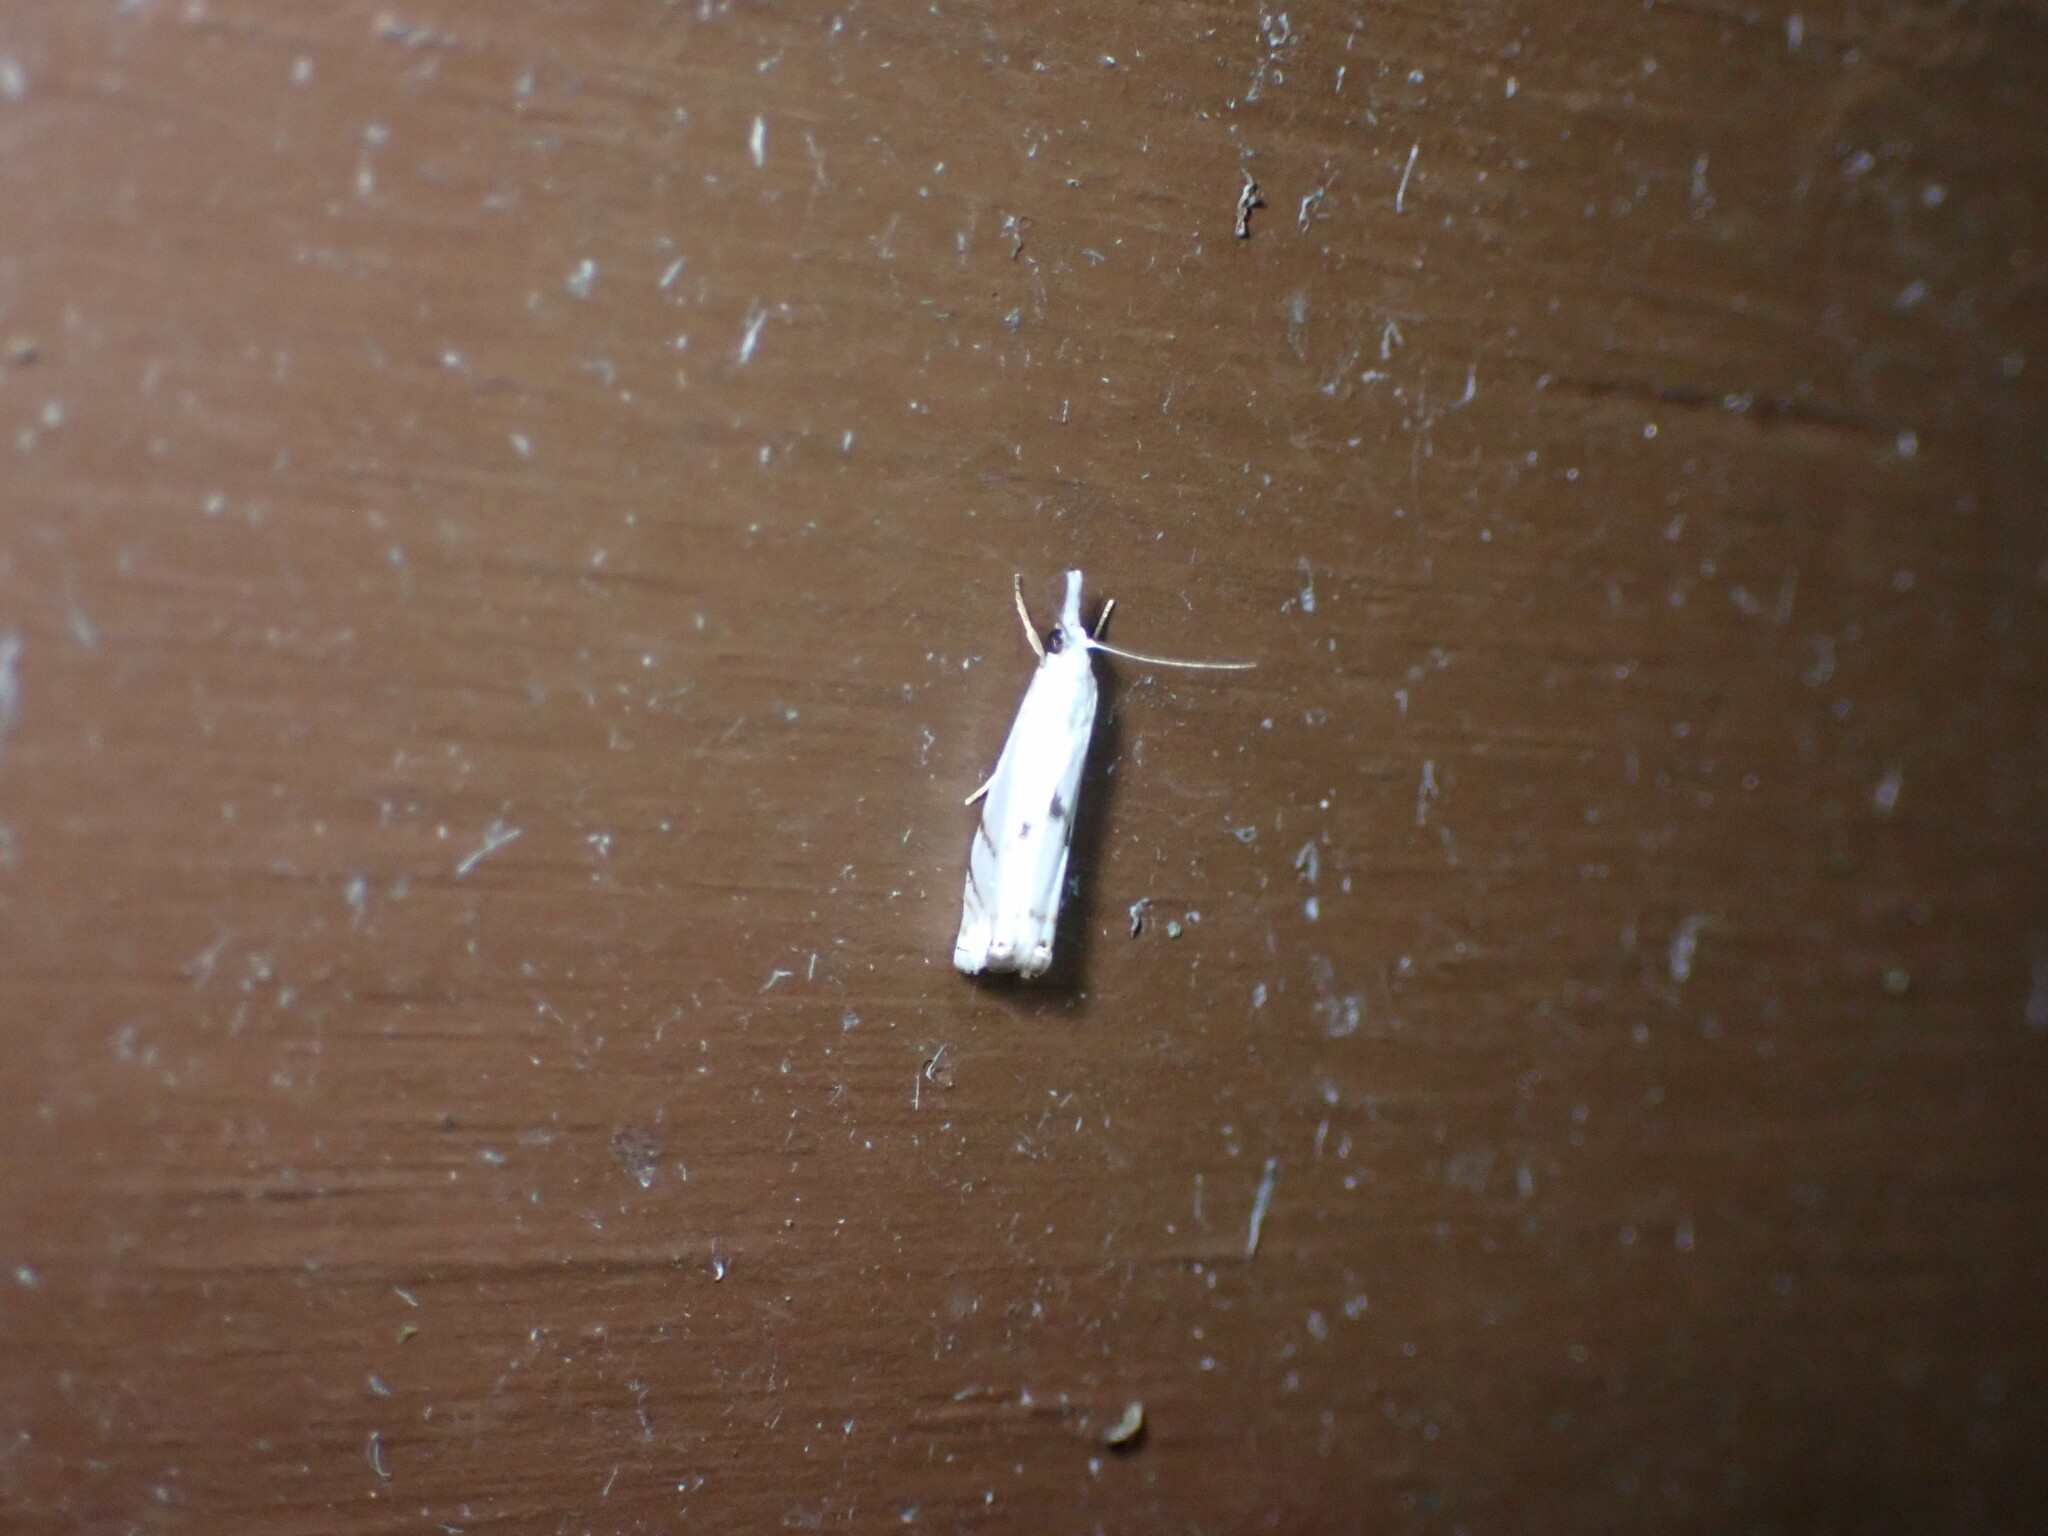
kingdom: Animalia
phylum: Arthropoda
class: Insecta
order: Lepidoptera
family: Crambidae
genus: Microcrambus
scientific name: Microcrambus biguttellus
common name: Gold-stripe grass-veneer moth
